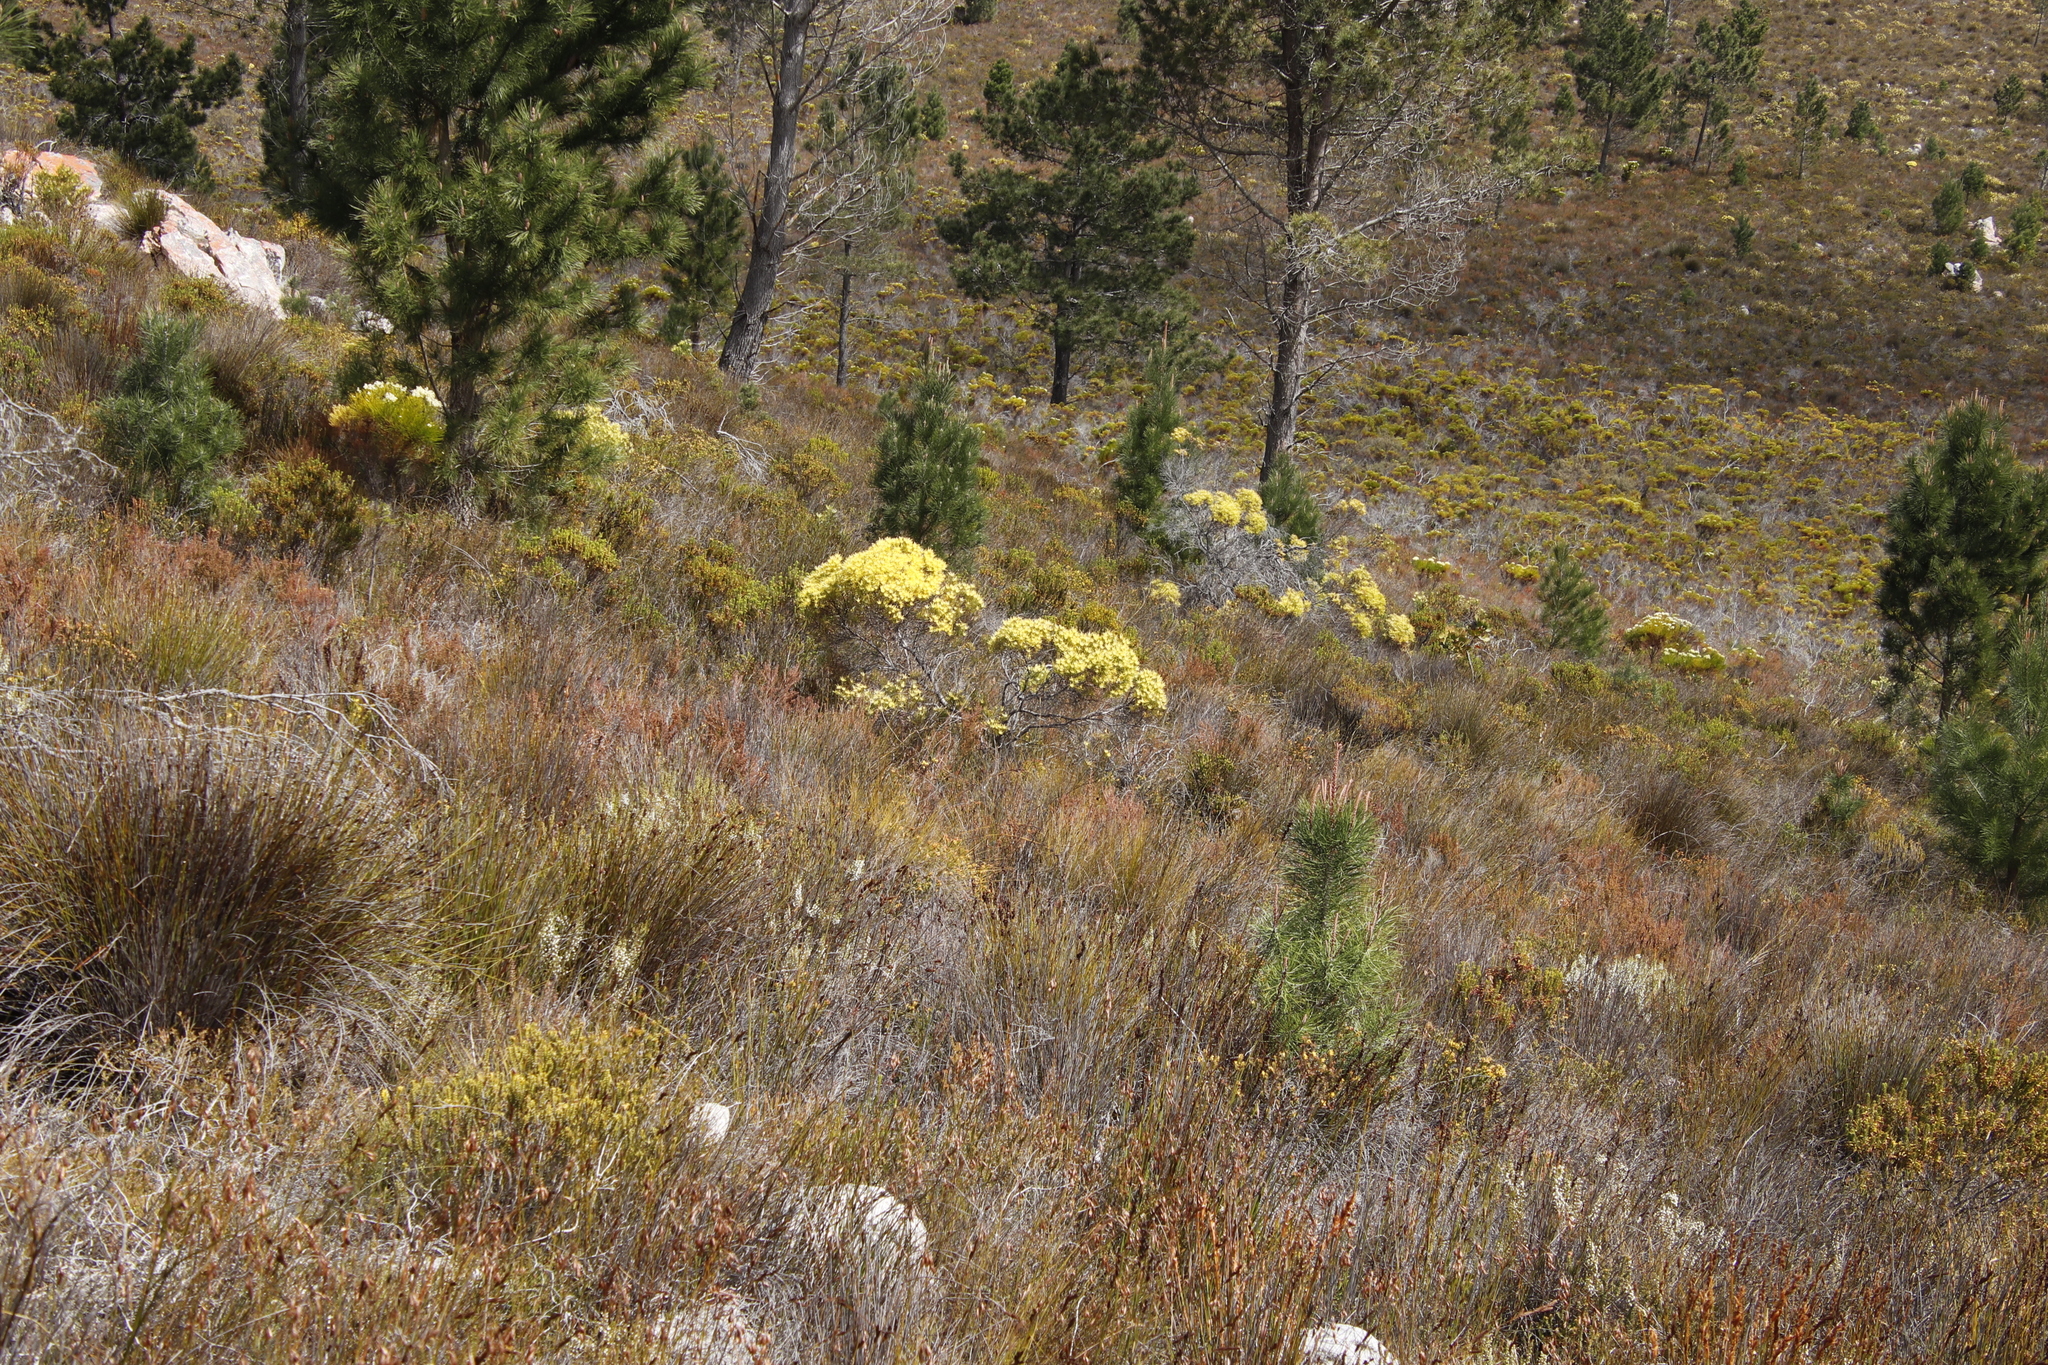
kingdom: Plantae
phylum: Tracheophyta
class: Magnoliopsida
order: Proteales
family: Proteaceae
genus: Leucadendron
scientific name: Leucadendron xanthoconus
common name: Sickle-leaf conebush
